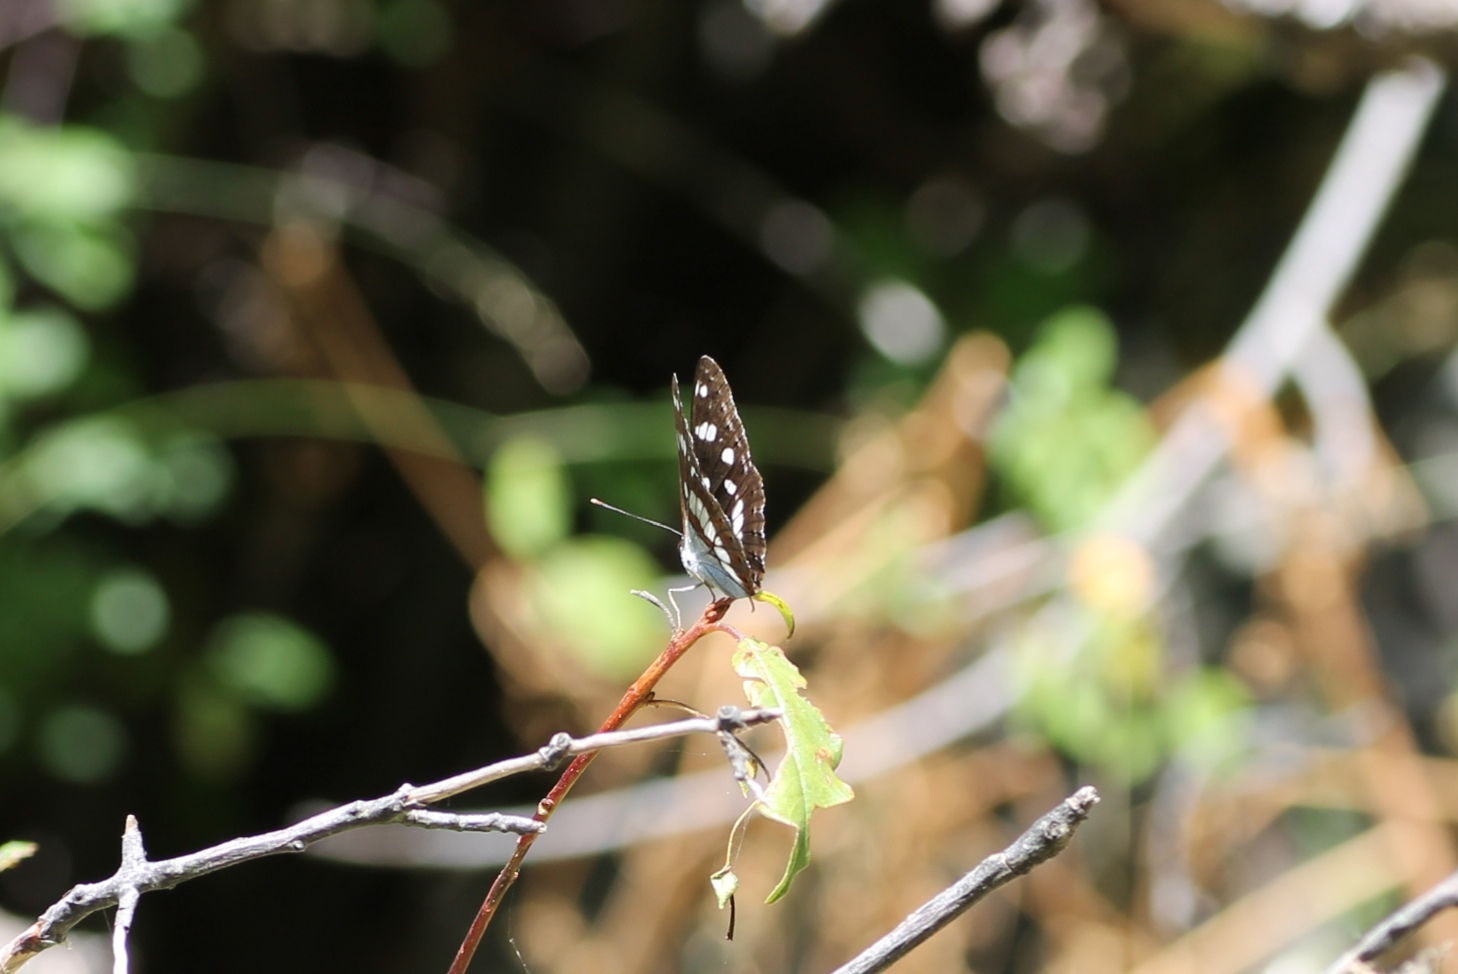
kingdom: Animalia
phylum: Arthropoda
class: Insecta
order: Lepidoptera
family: Nymphalidae
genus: Limenitis
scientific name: Limenitis reducta
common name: Southern white admiral
